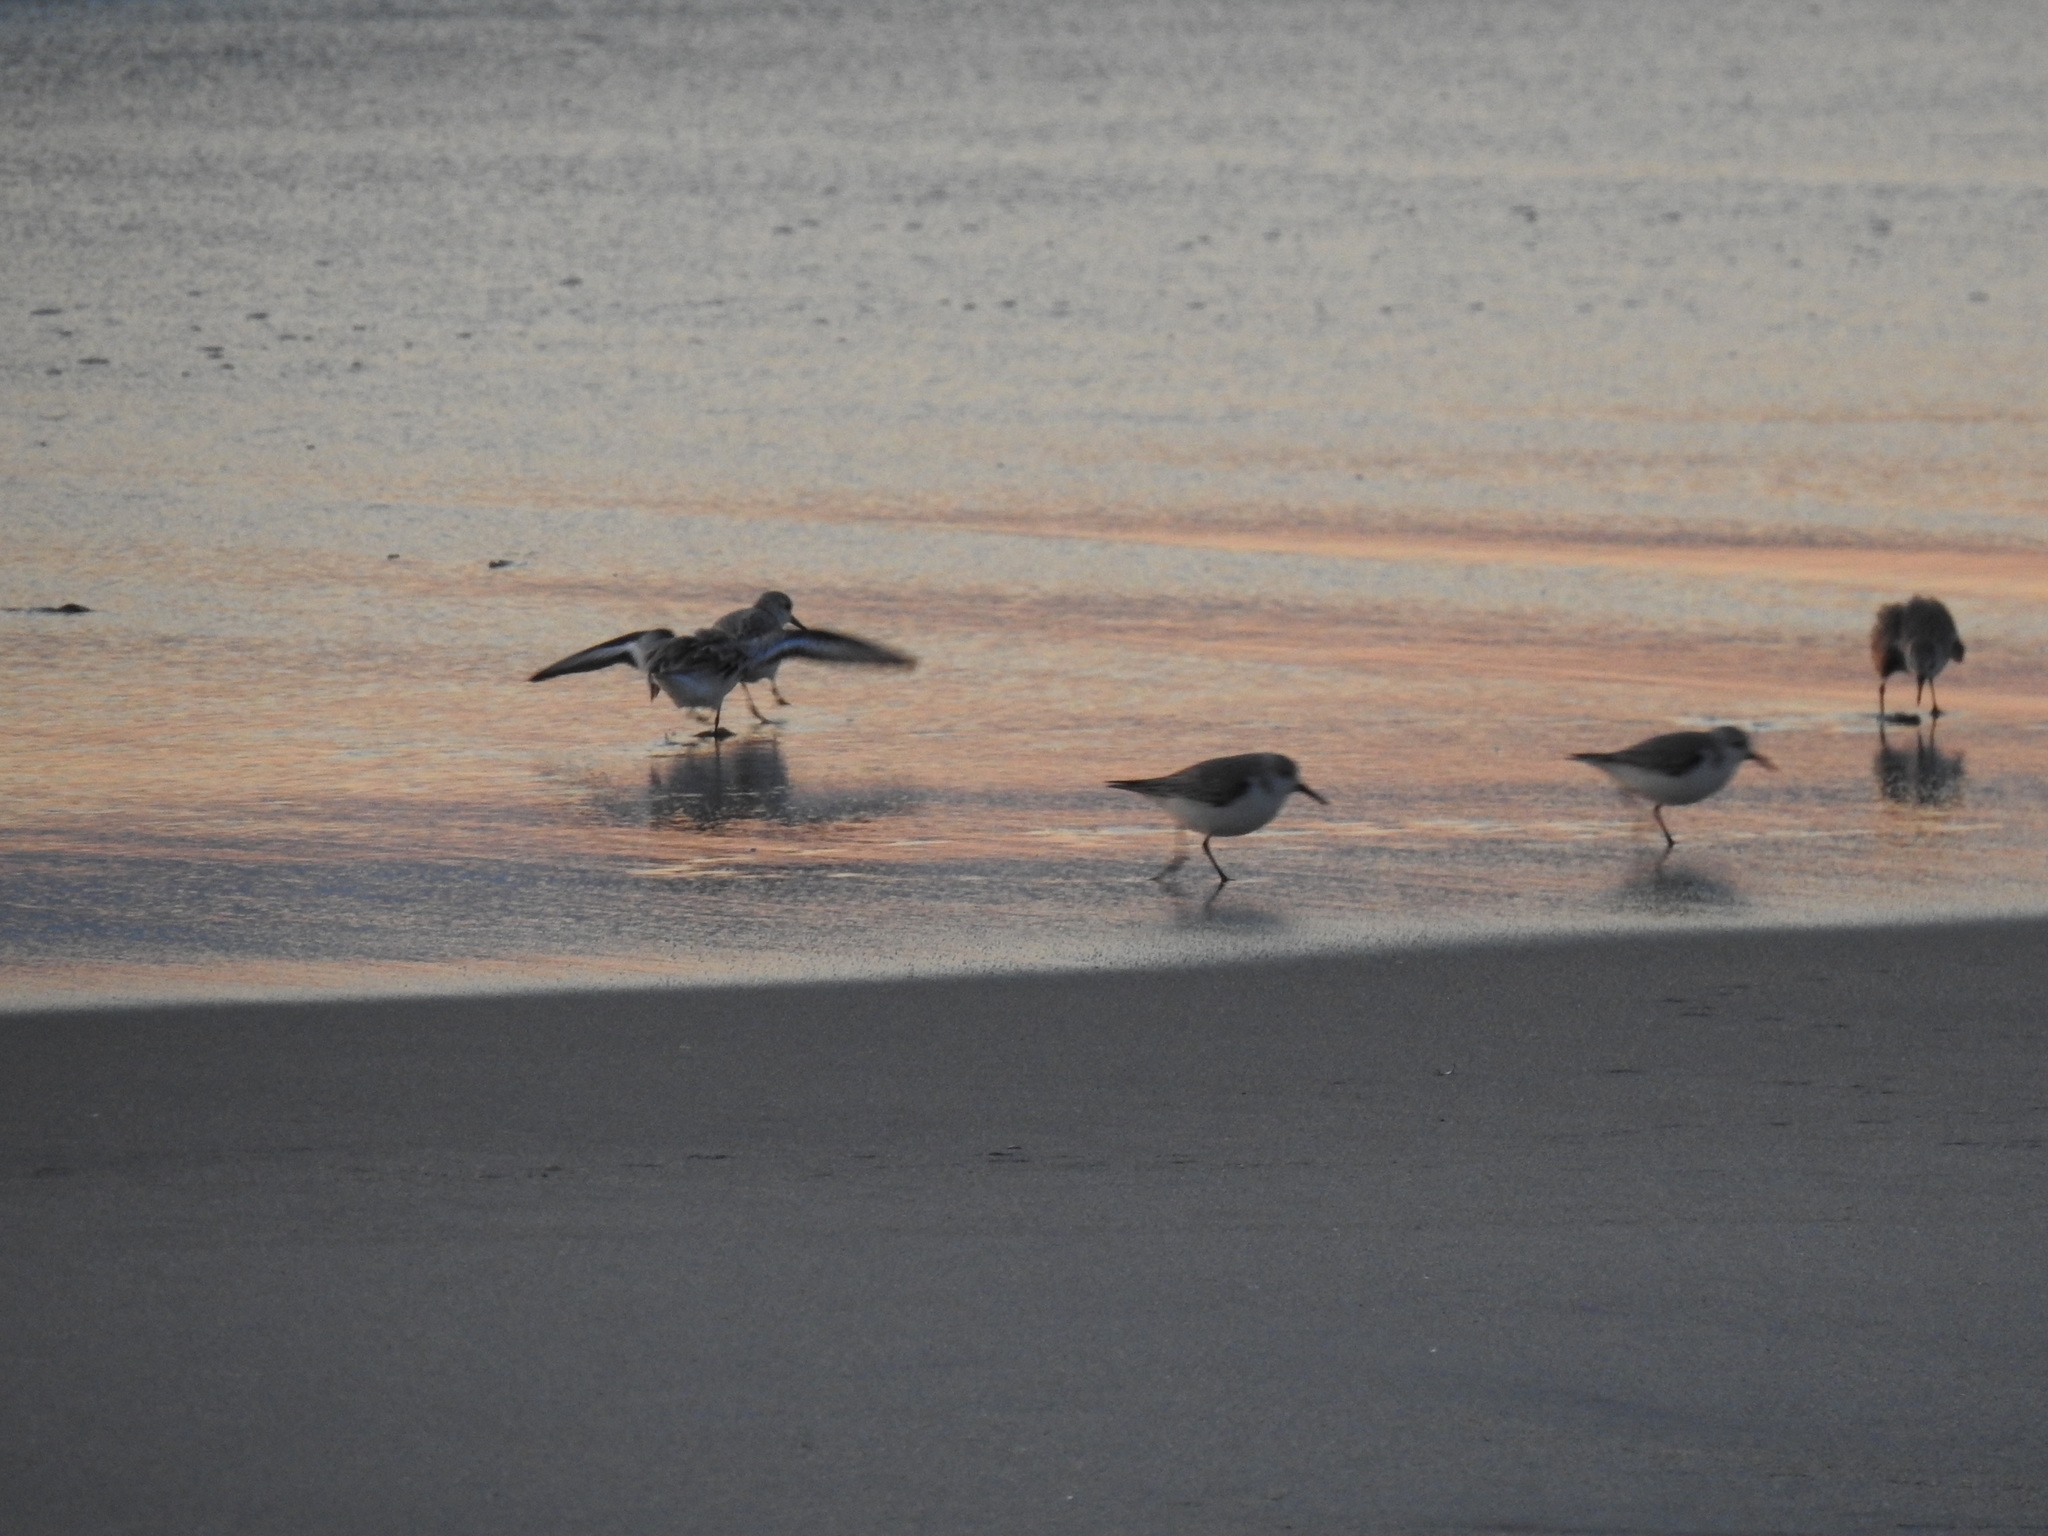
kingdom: Animalia
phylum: Chordata
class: Aves
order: Charadriiformes
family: Scolopacidae
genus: Calidris
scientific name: Calidris alba
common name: Sanderling
